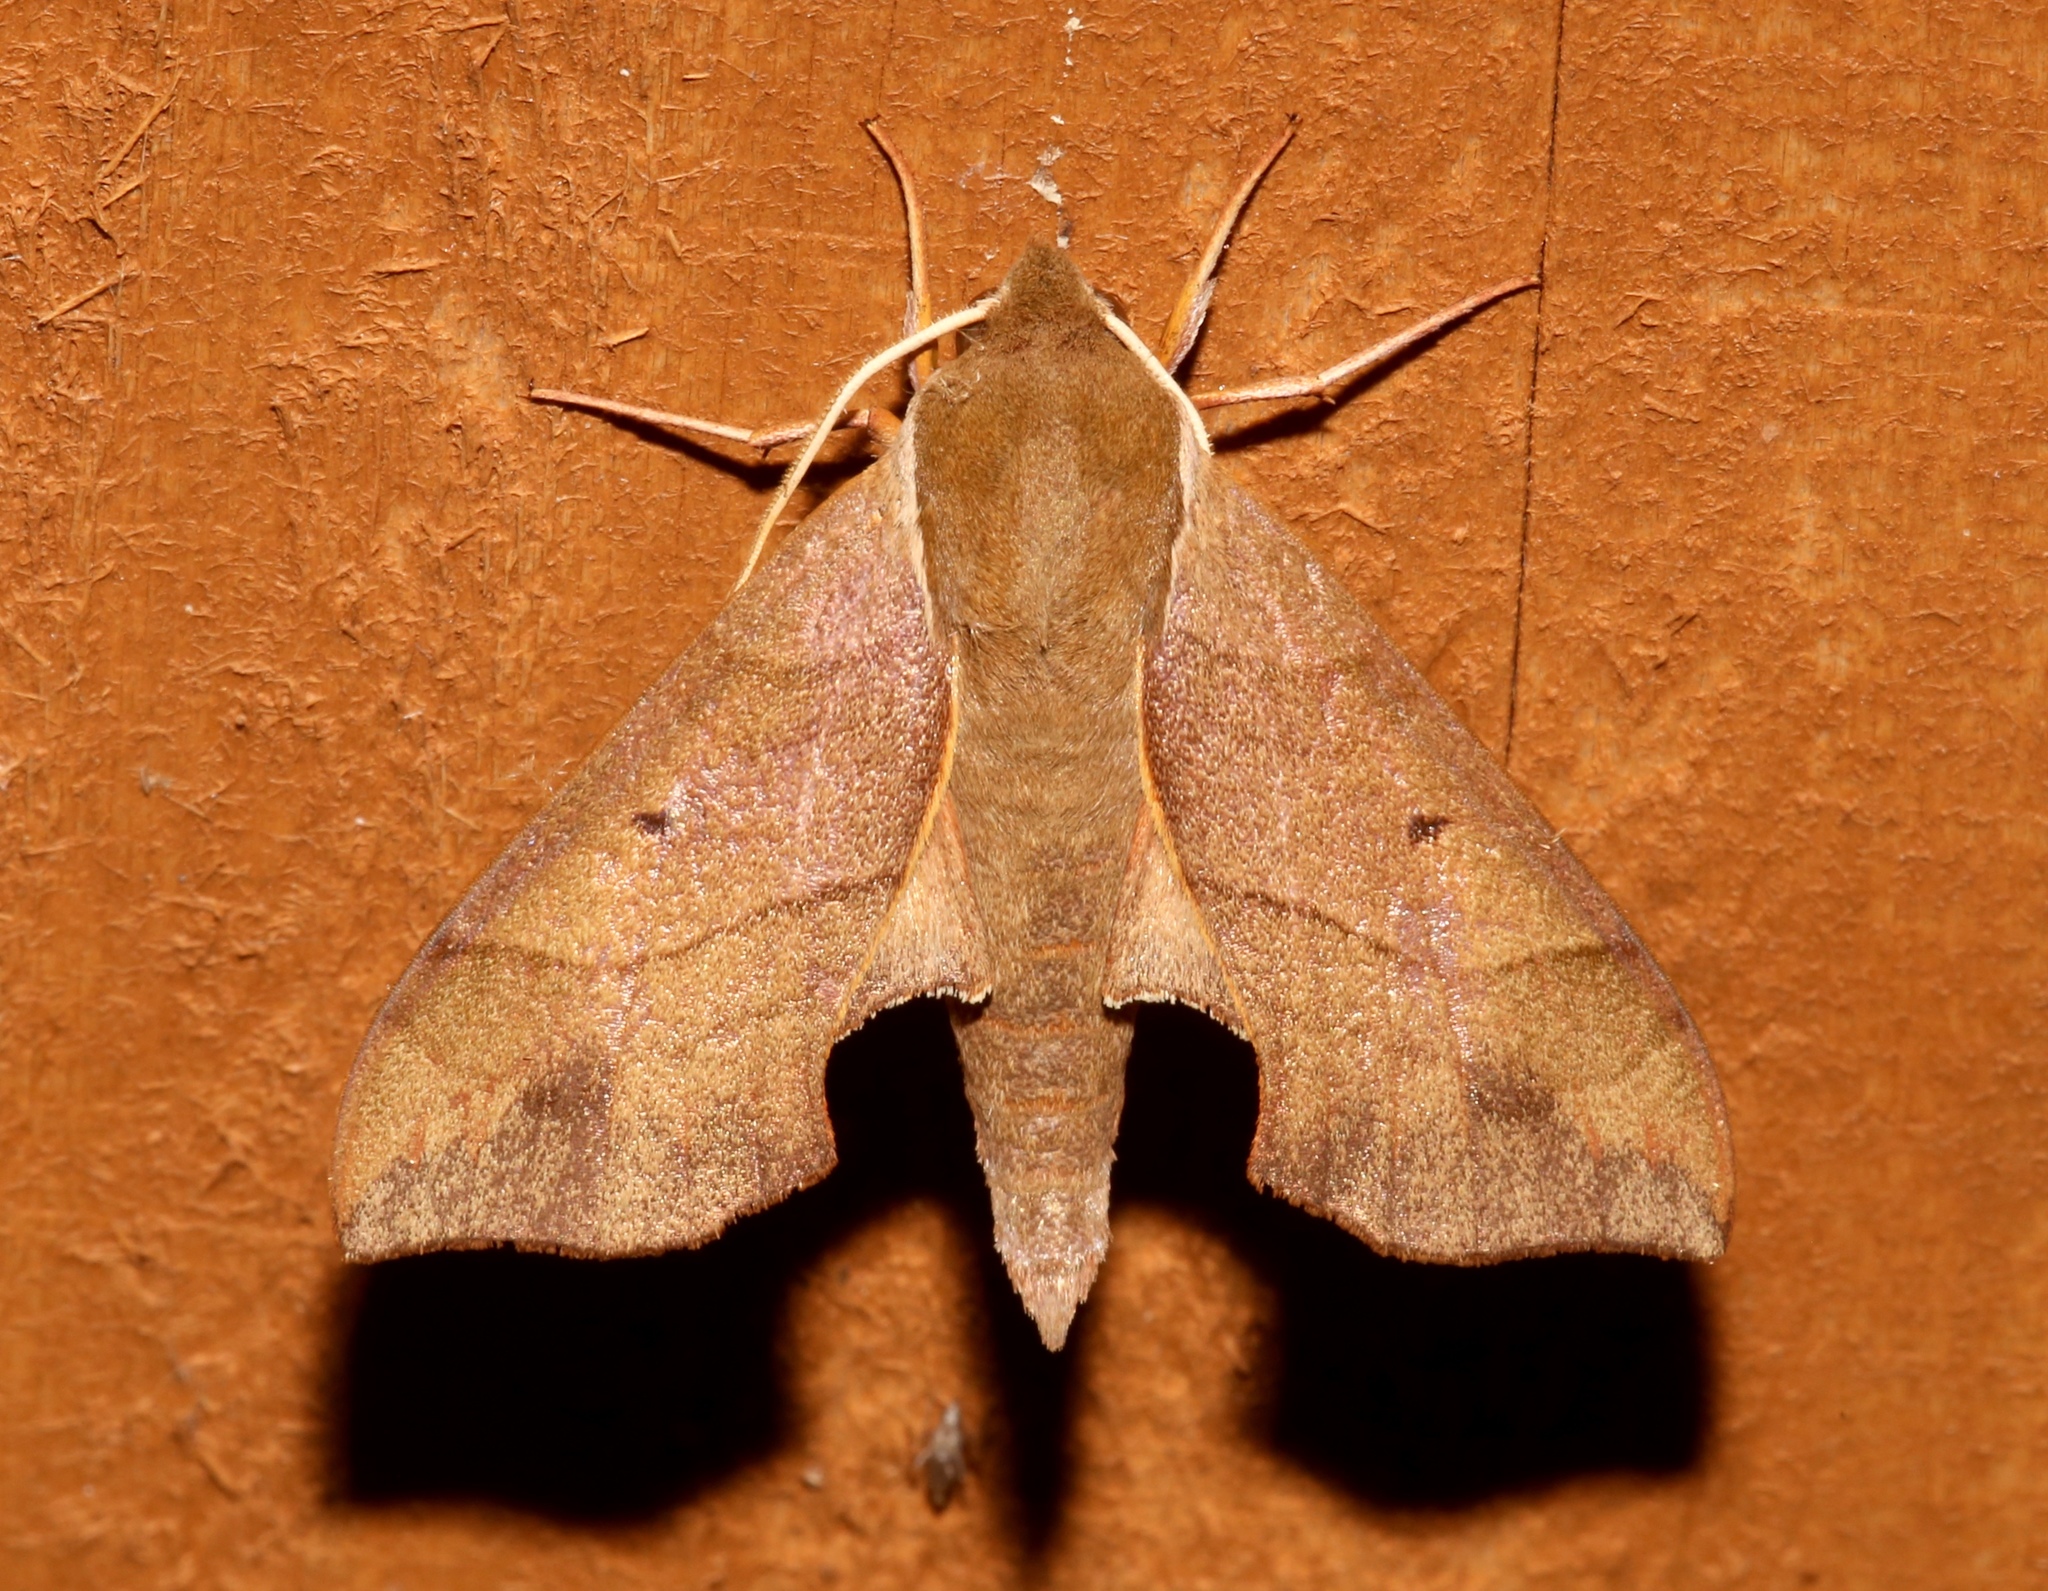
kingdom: Animalia
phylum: Arthropoda
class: Insecta
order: Lepidoptera
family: Sphingidae
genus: Darapsa
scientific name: Darapsa myron
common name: Hog sphinx
